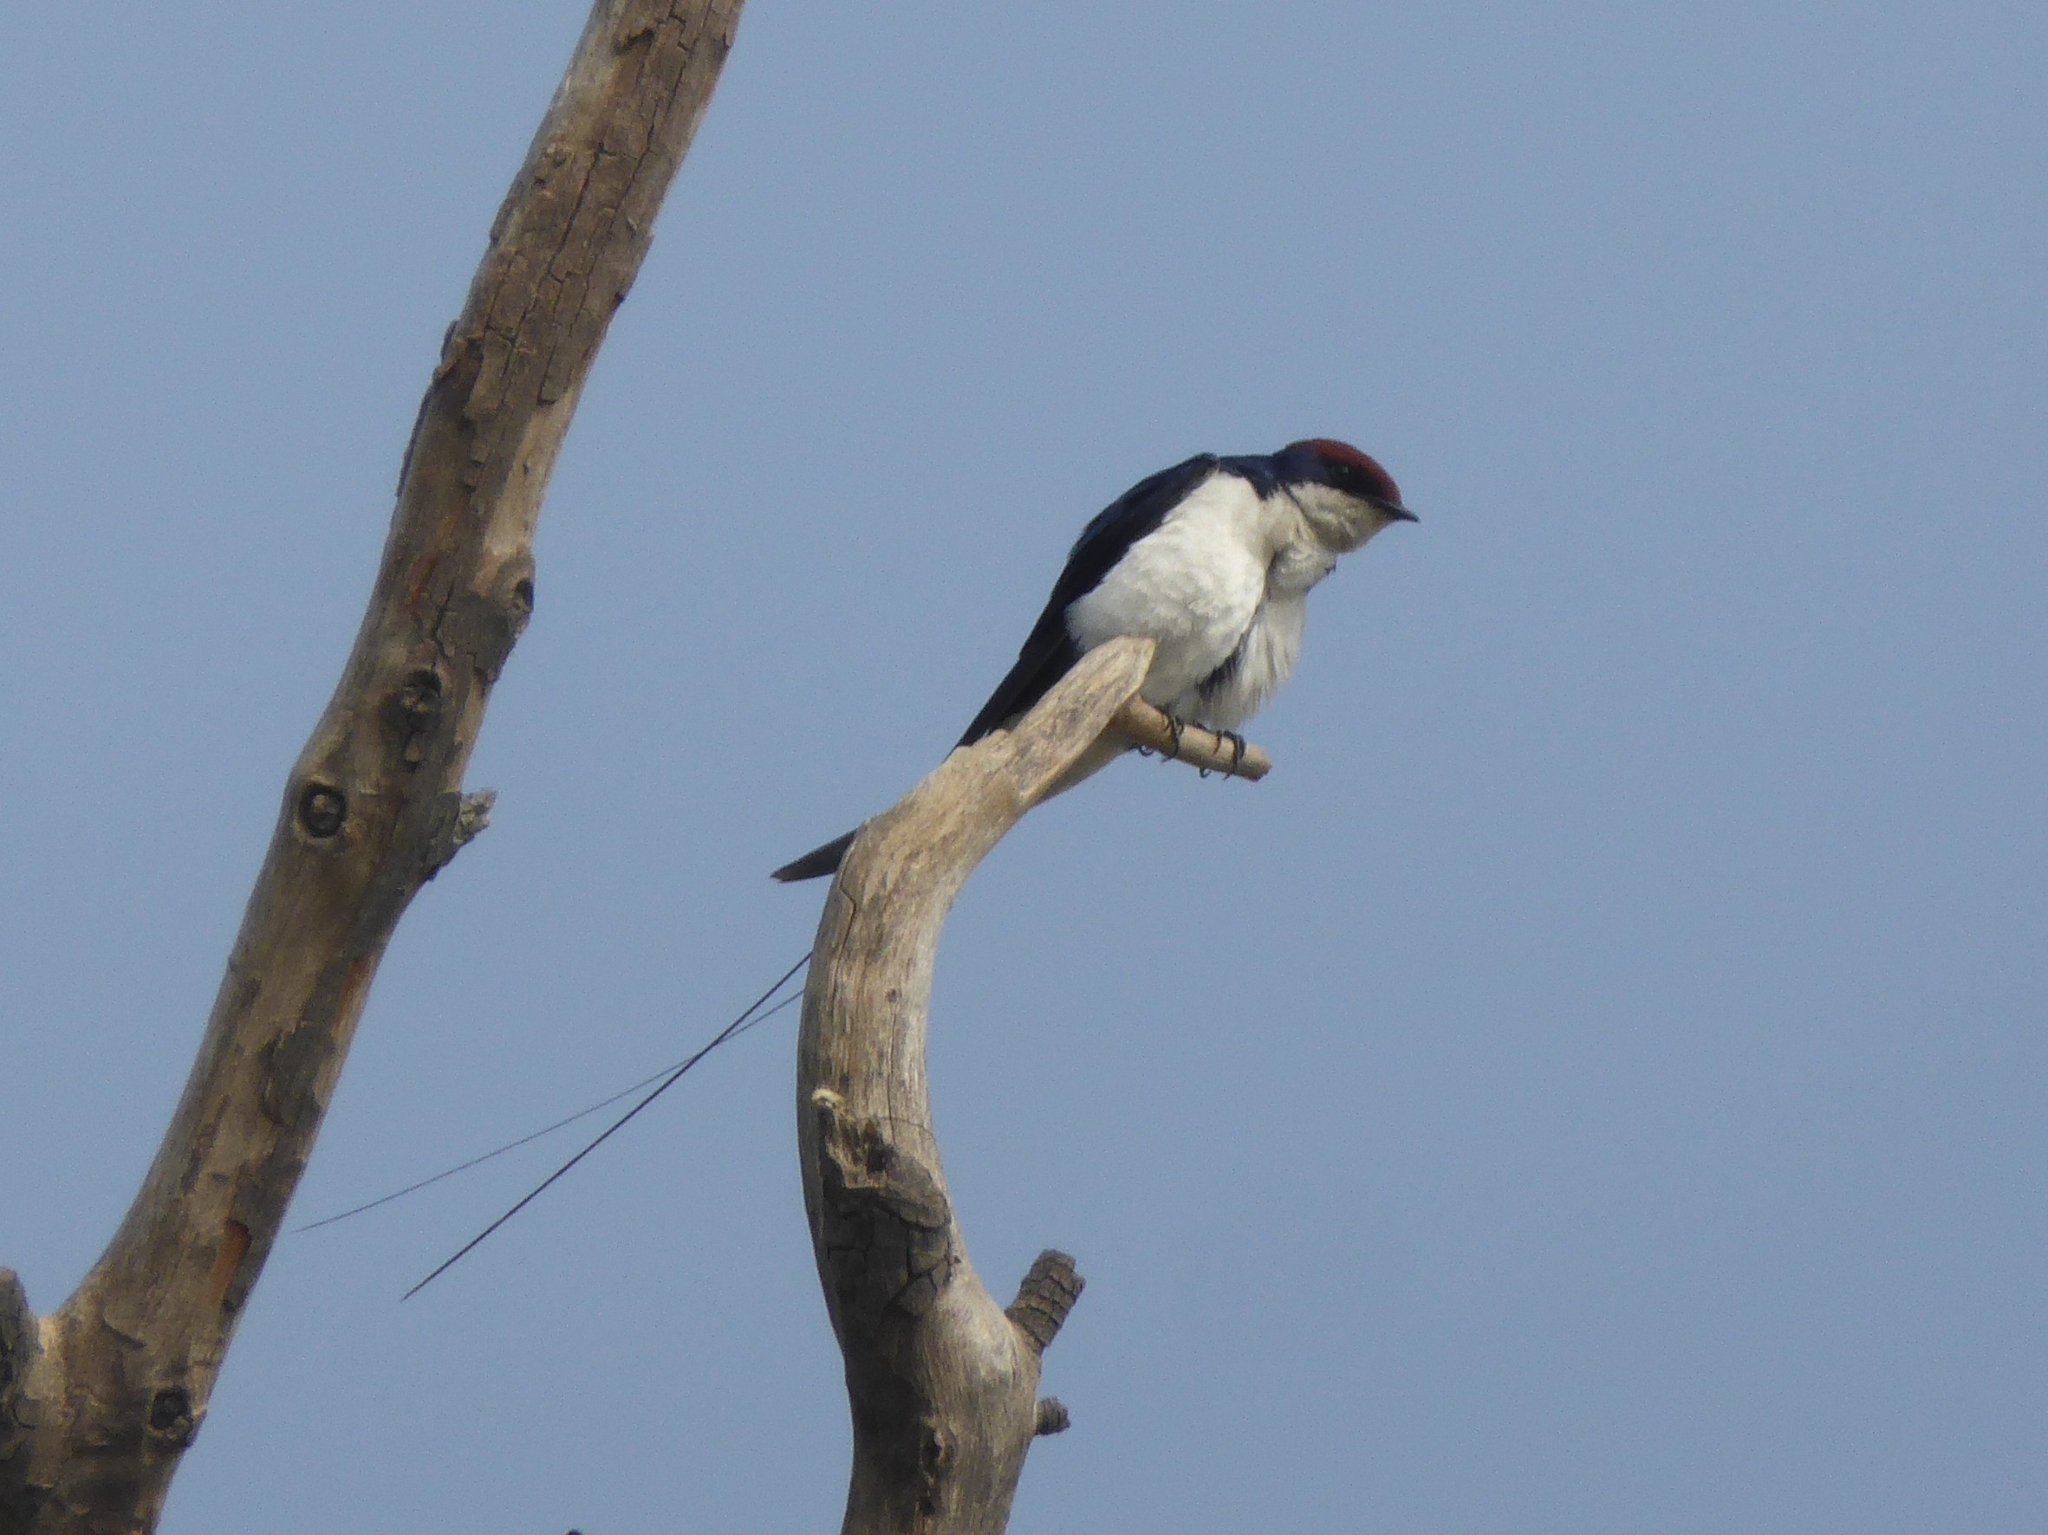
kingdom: Animalia
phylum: Chordata
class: Aves
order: Passeriformes
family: Hirundinidae
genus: Hirundo
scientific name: Hirundo smithii
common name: Wire-tailed swallow
